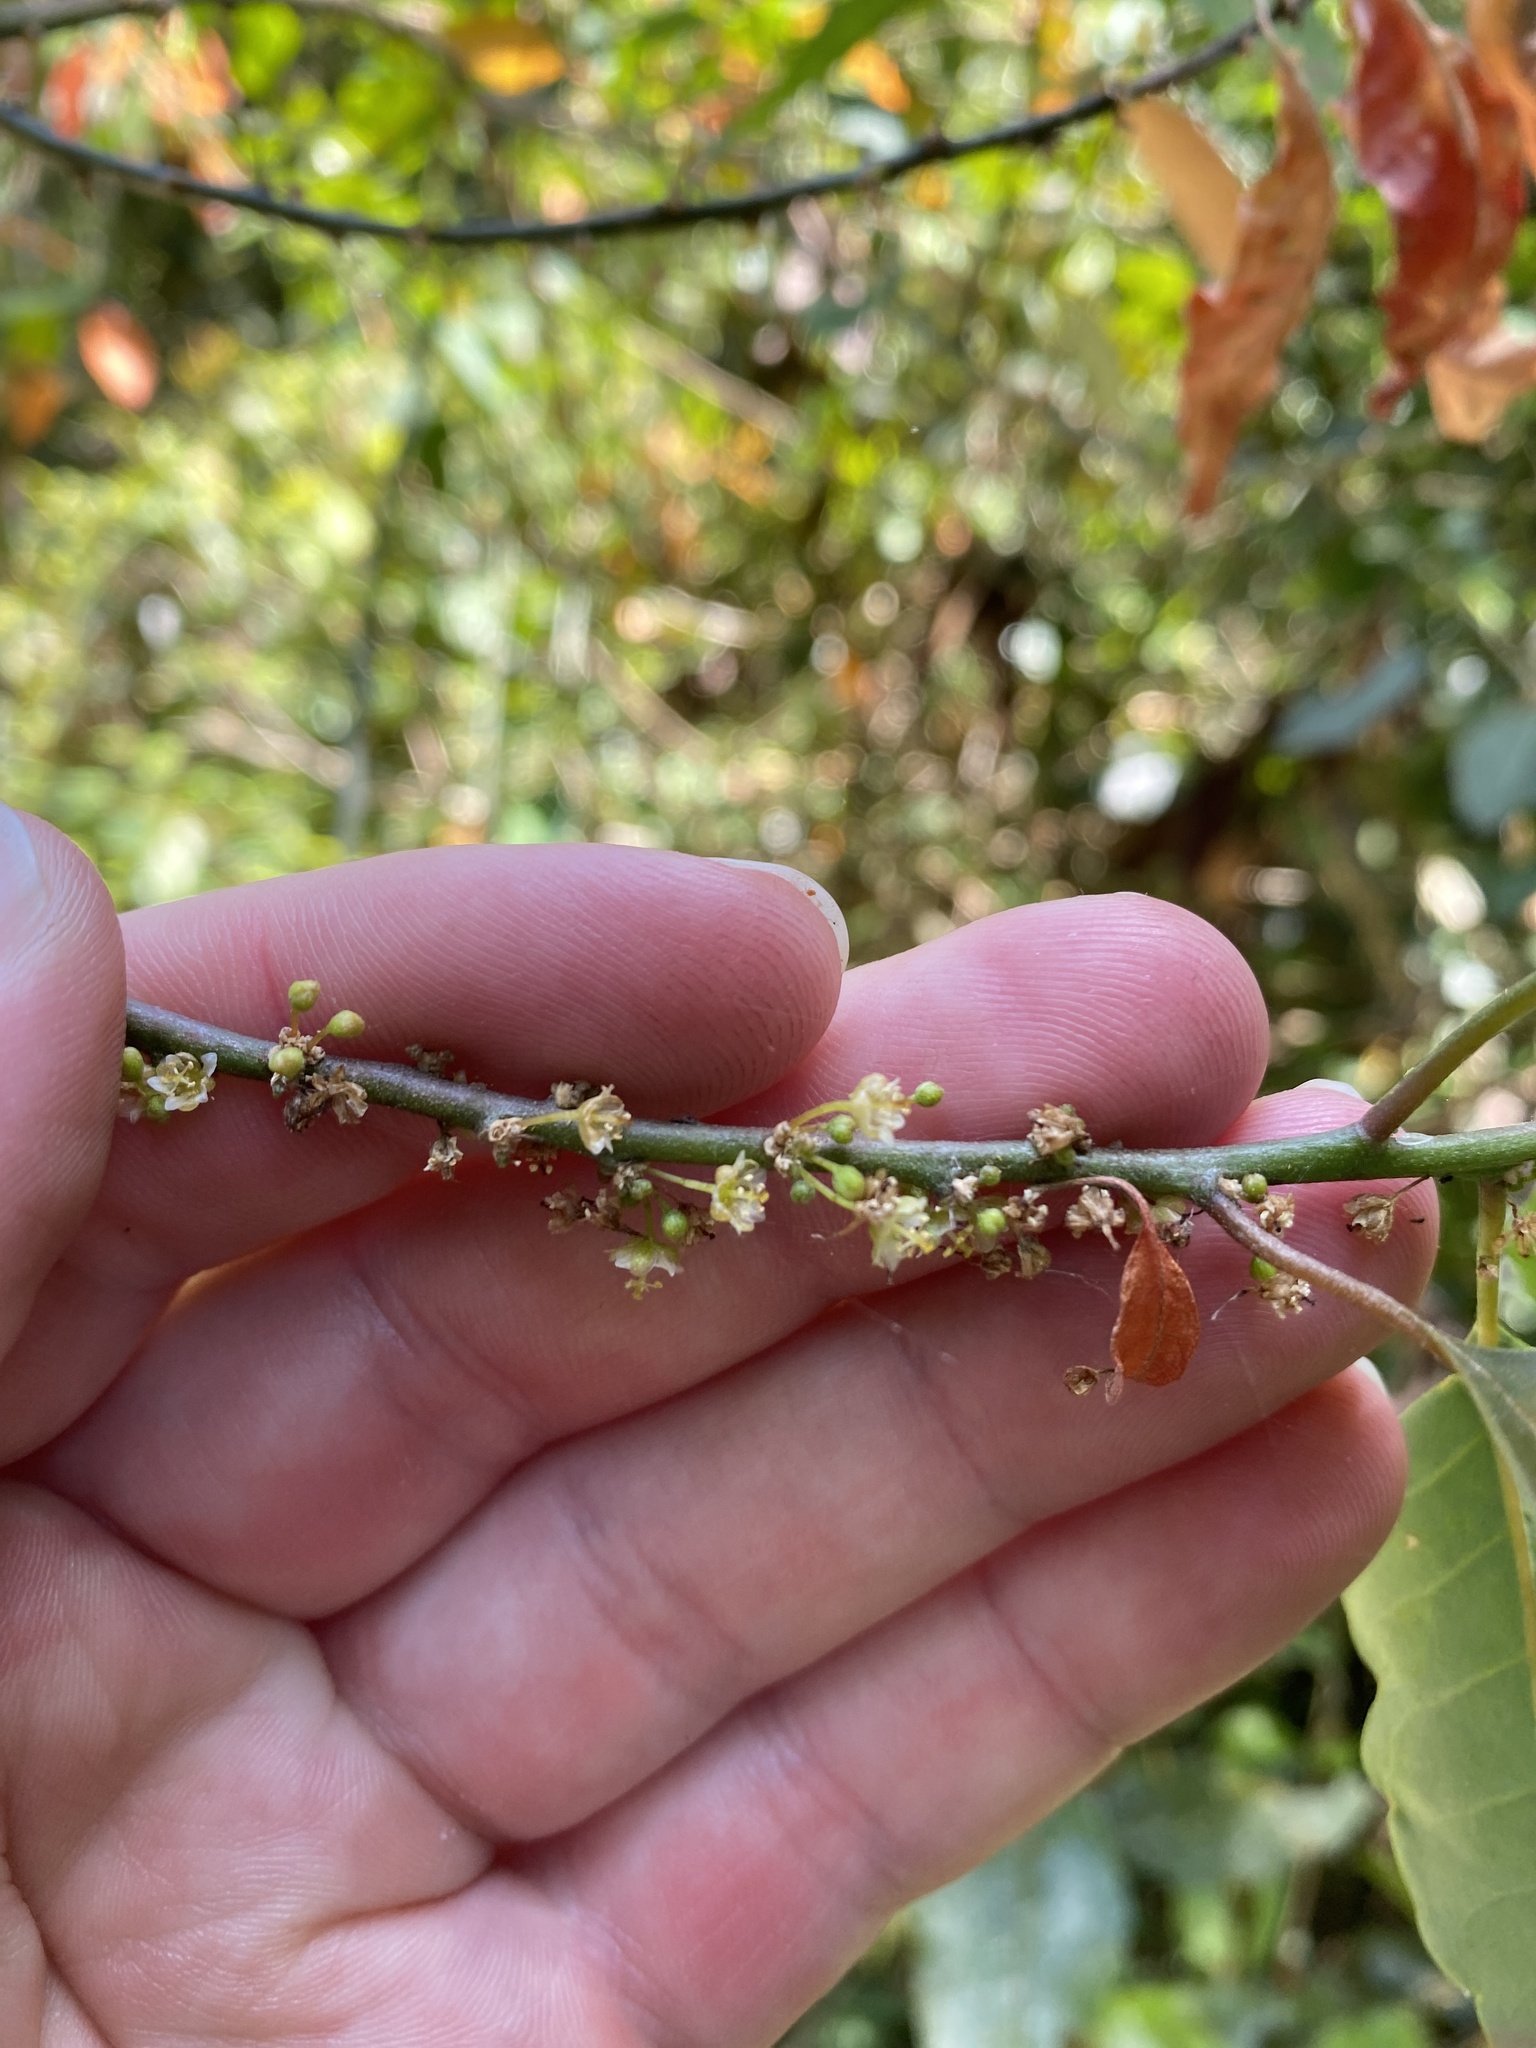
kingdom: Plantae
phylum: Tracheophyta
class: Magnoliopsida
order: Malpighiales
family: Peraceae
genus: Clutia
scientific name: Clutia pulchella
